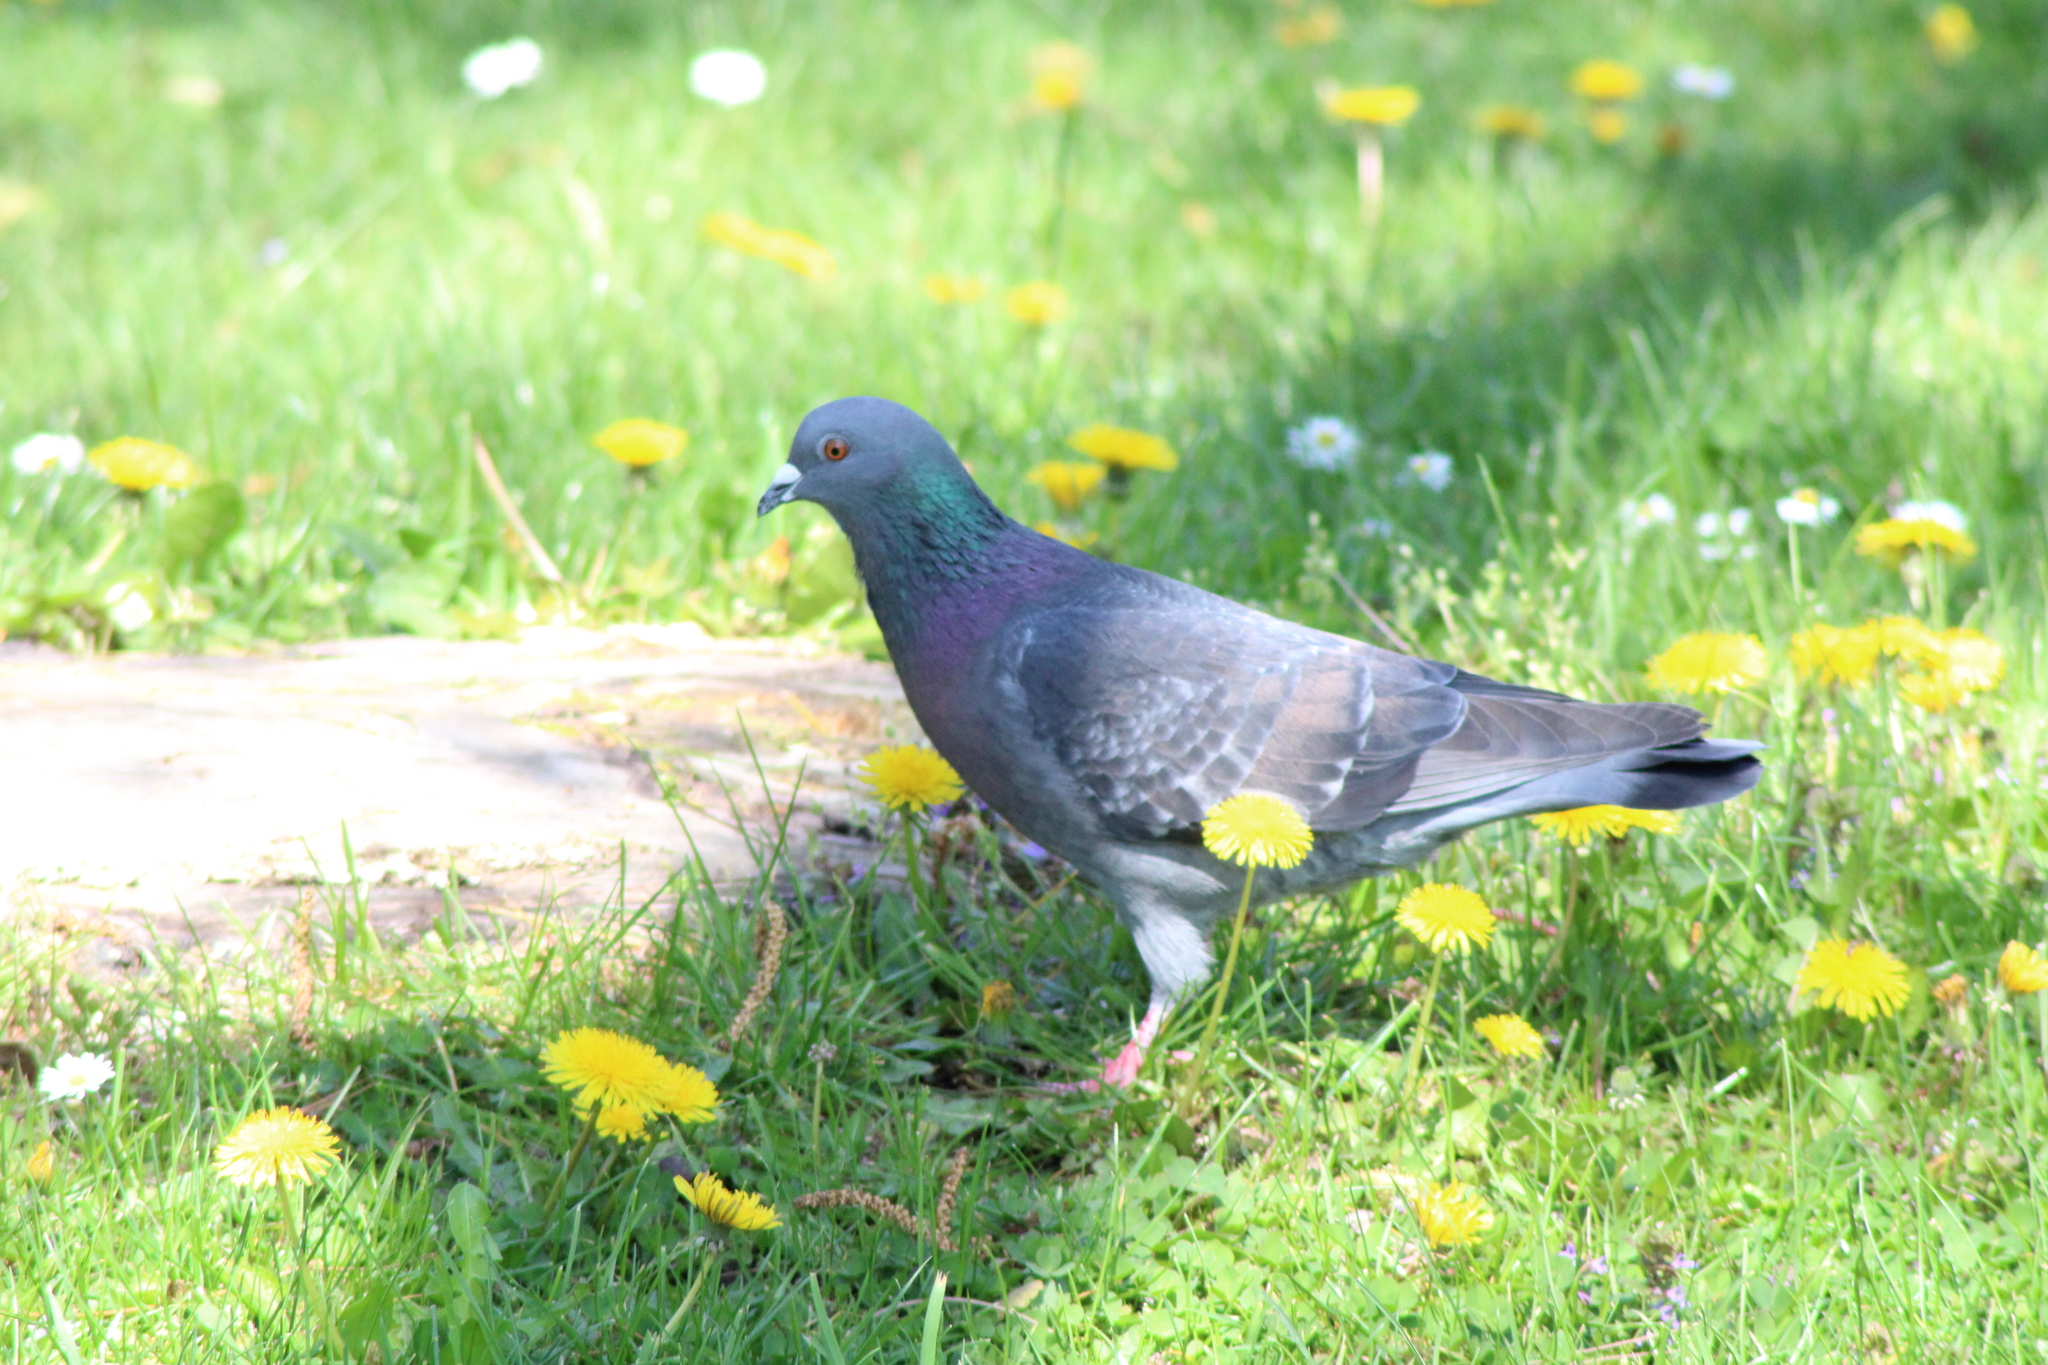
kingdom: Animalia
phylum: Chordata
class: Aves
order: Columbiformes
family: Columbidae
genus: Columba
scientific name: Columba livia
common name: Rock pigeon
